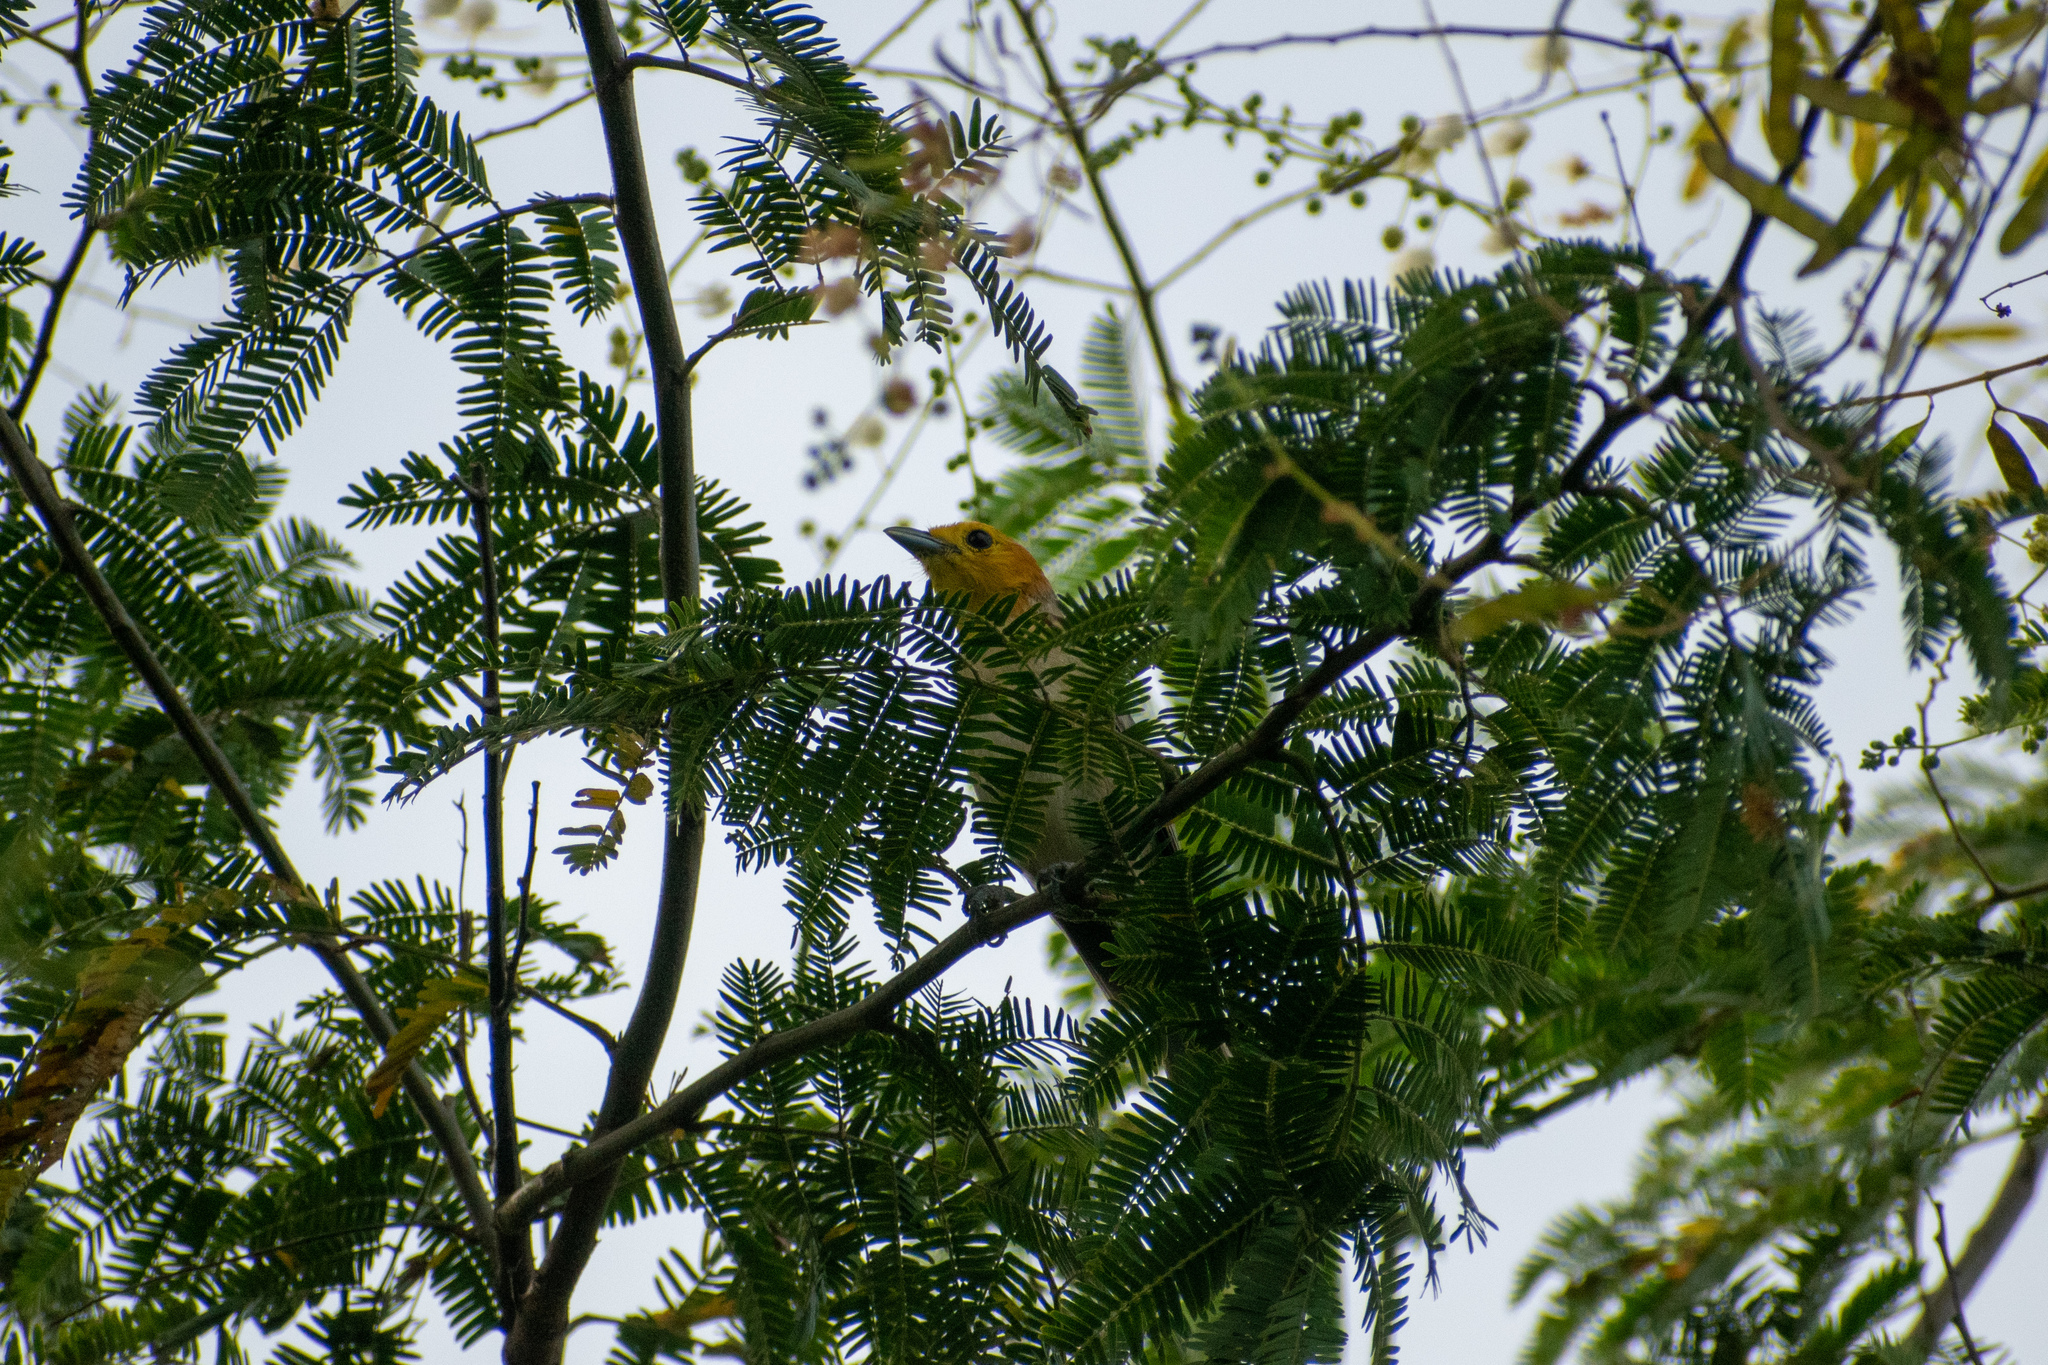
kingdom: Animalia
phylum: Chordata
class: Aves
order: Passeriformes
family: Thraupidae
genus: Thlypopsis
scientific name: Thlypopsis sordida
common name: Orange-headed tanager
